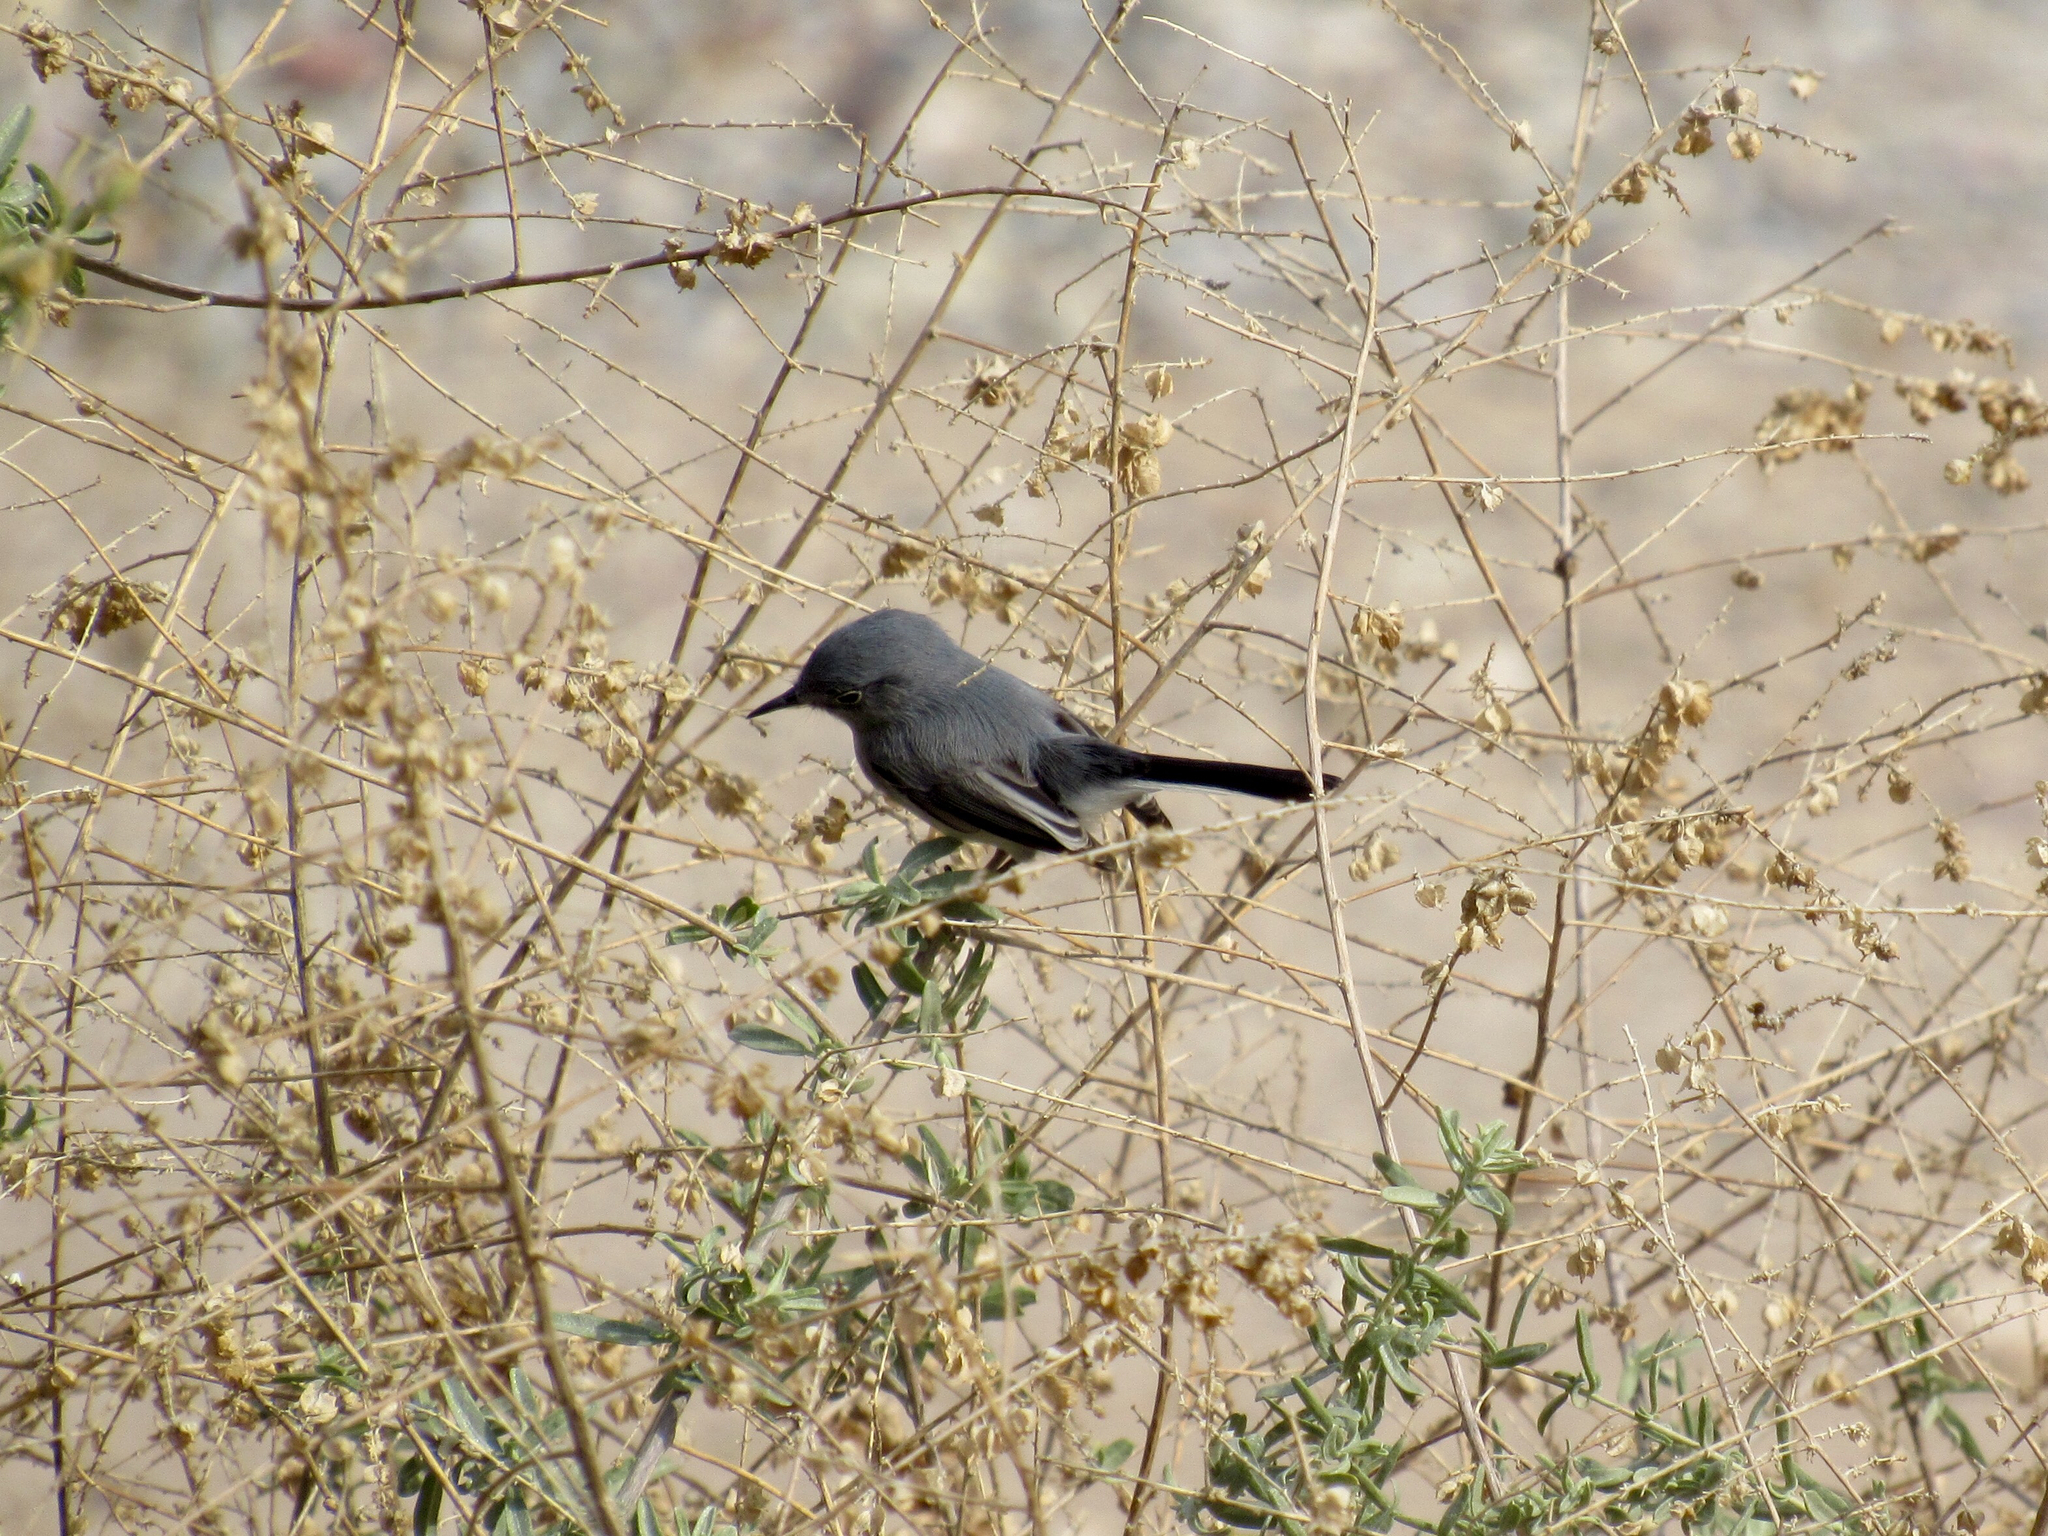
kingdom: Animalia
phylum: Chordata
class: Aves
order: Passeriformes
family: Polioptilidae
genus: Polioptila
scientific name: Polioptila caerulea
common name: Blue-gray gnatcatcher
